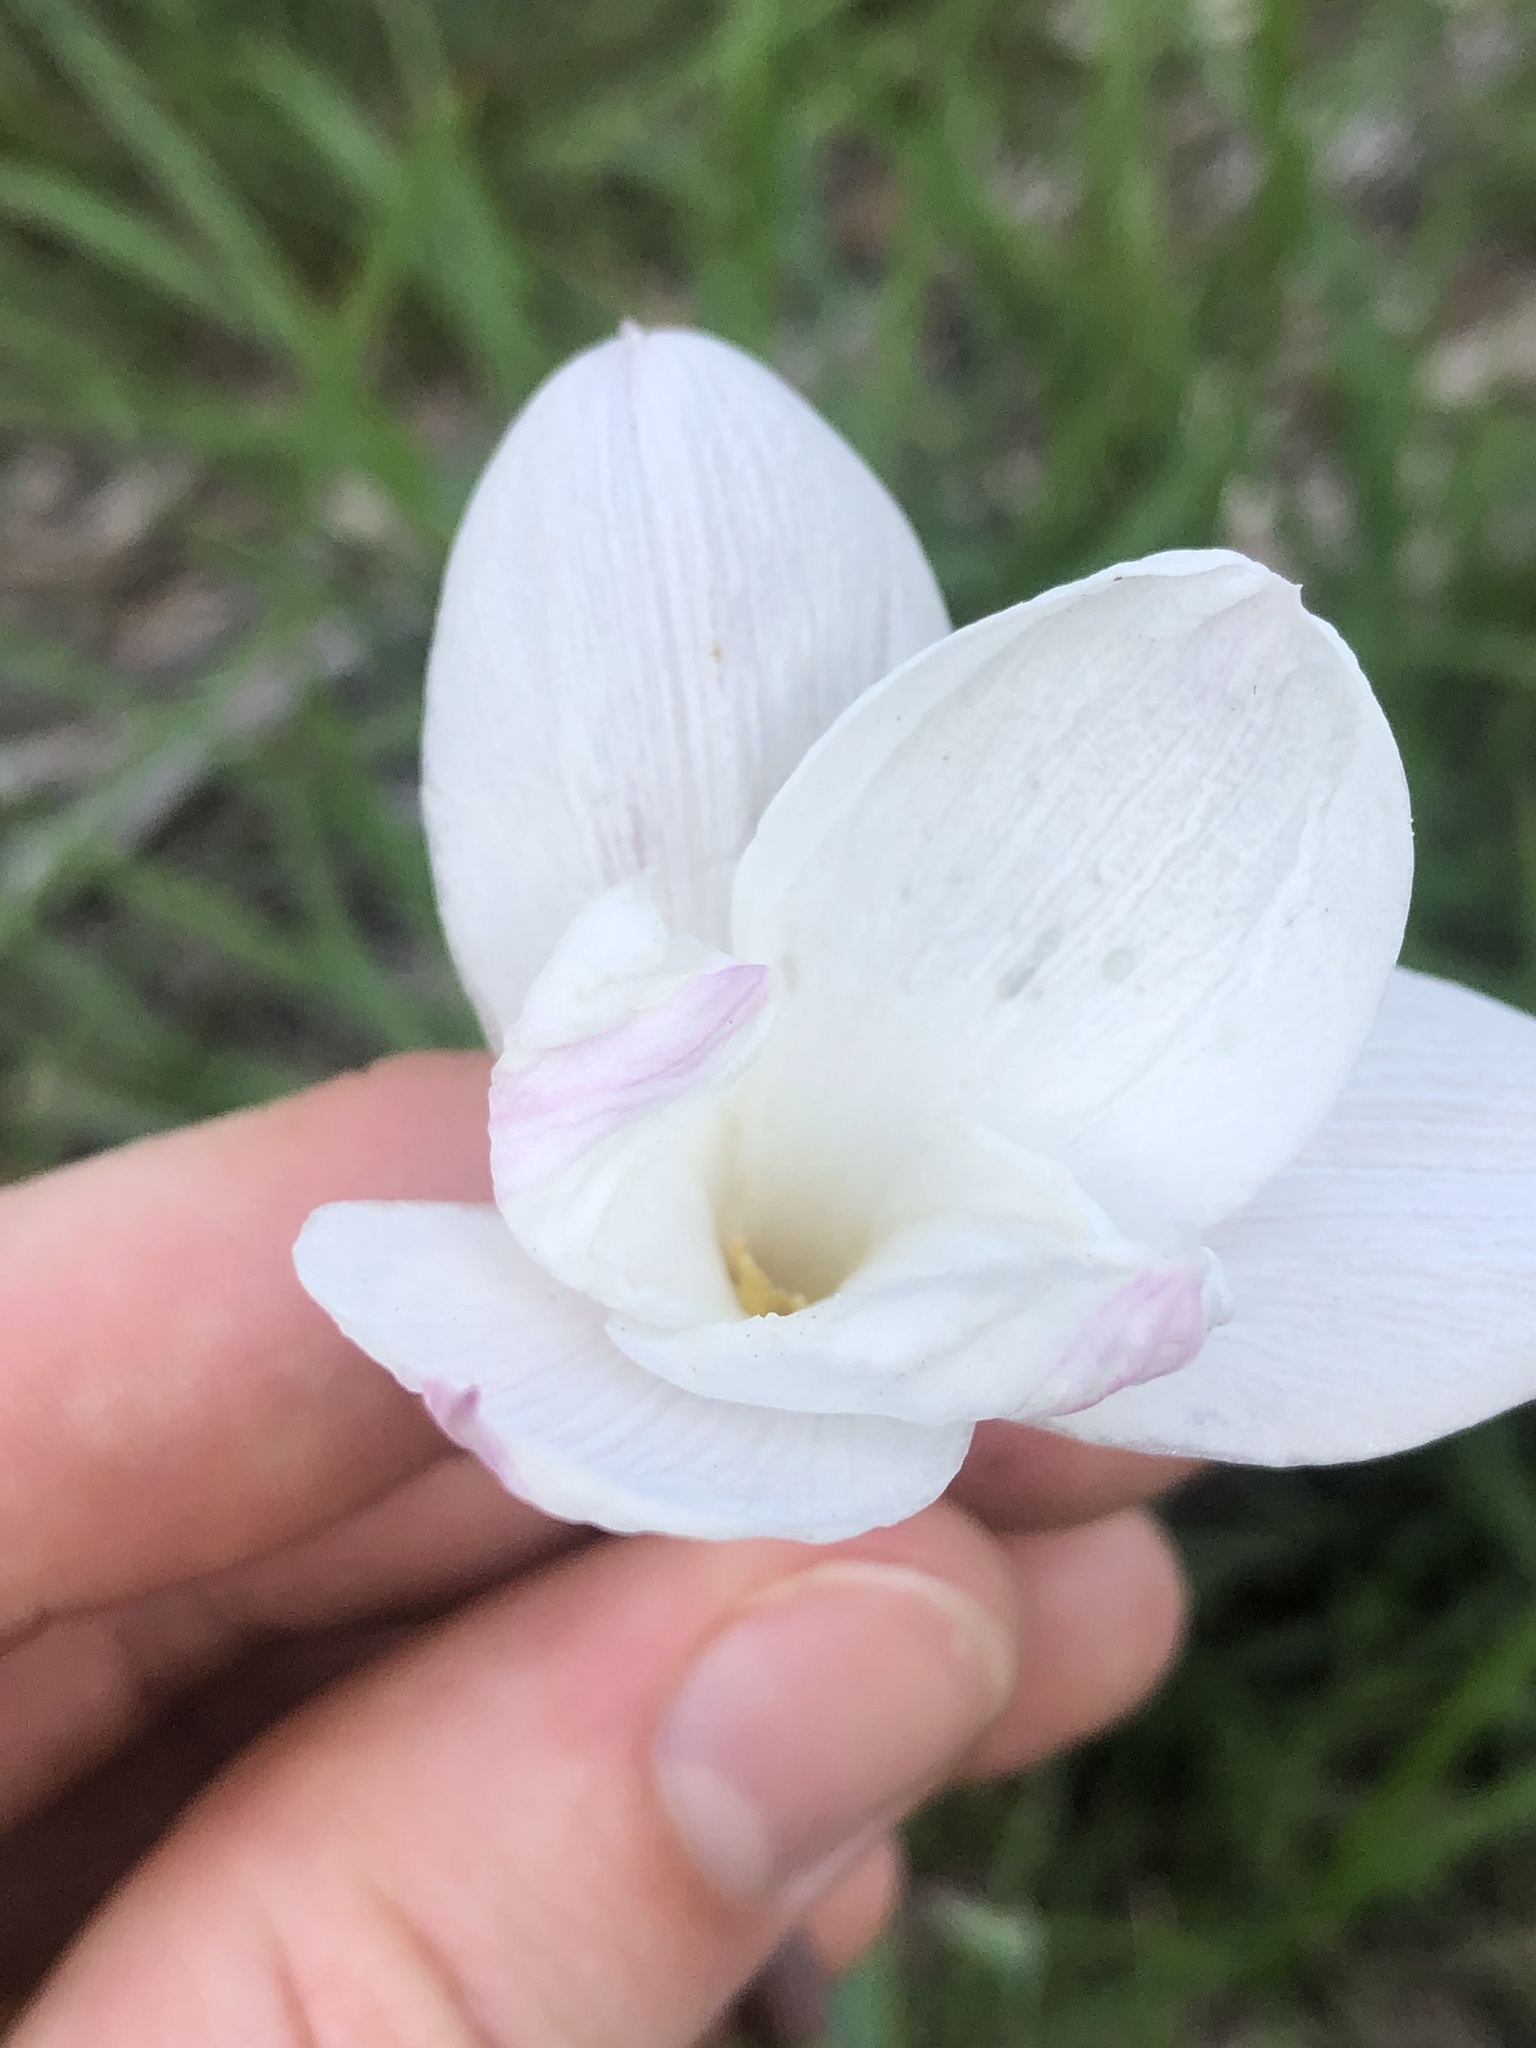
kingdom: Plantae
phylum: Tracheophyta
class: Liliopsida
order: Asparagales
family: Amaryllidaceae
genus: Zephyranthes
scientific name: Zephyranthes drummondii
